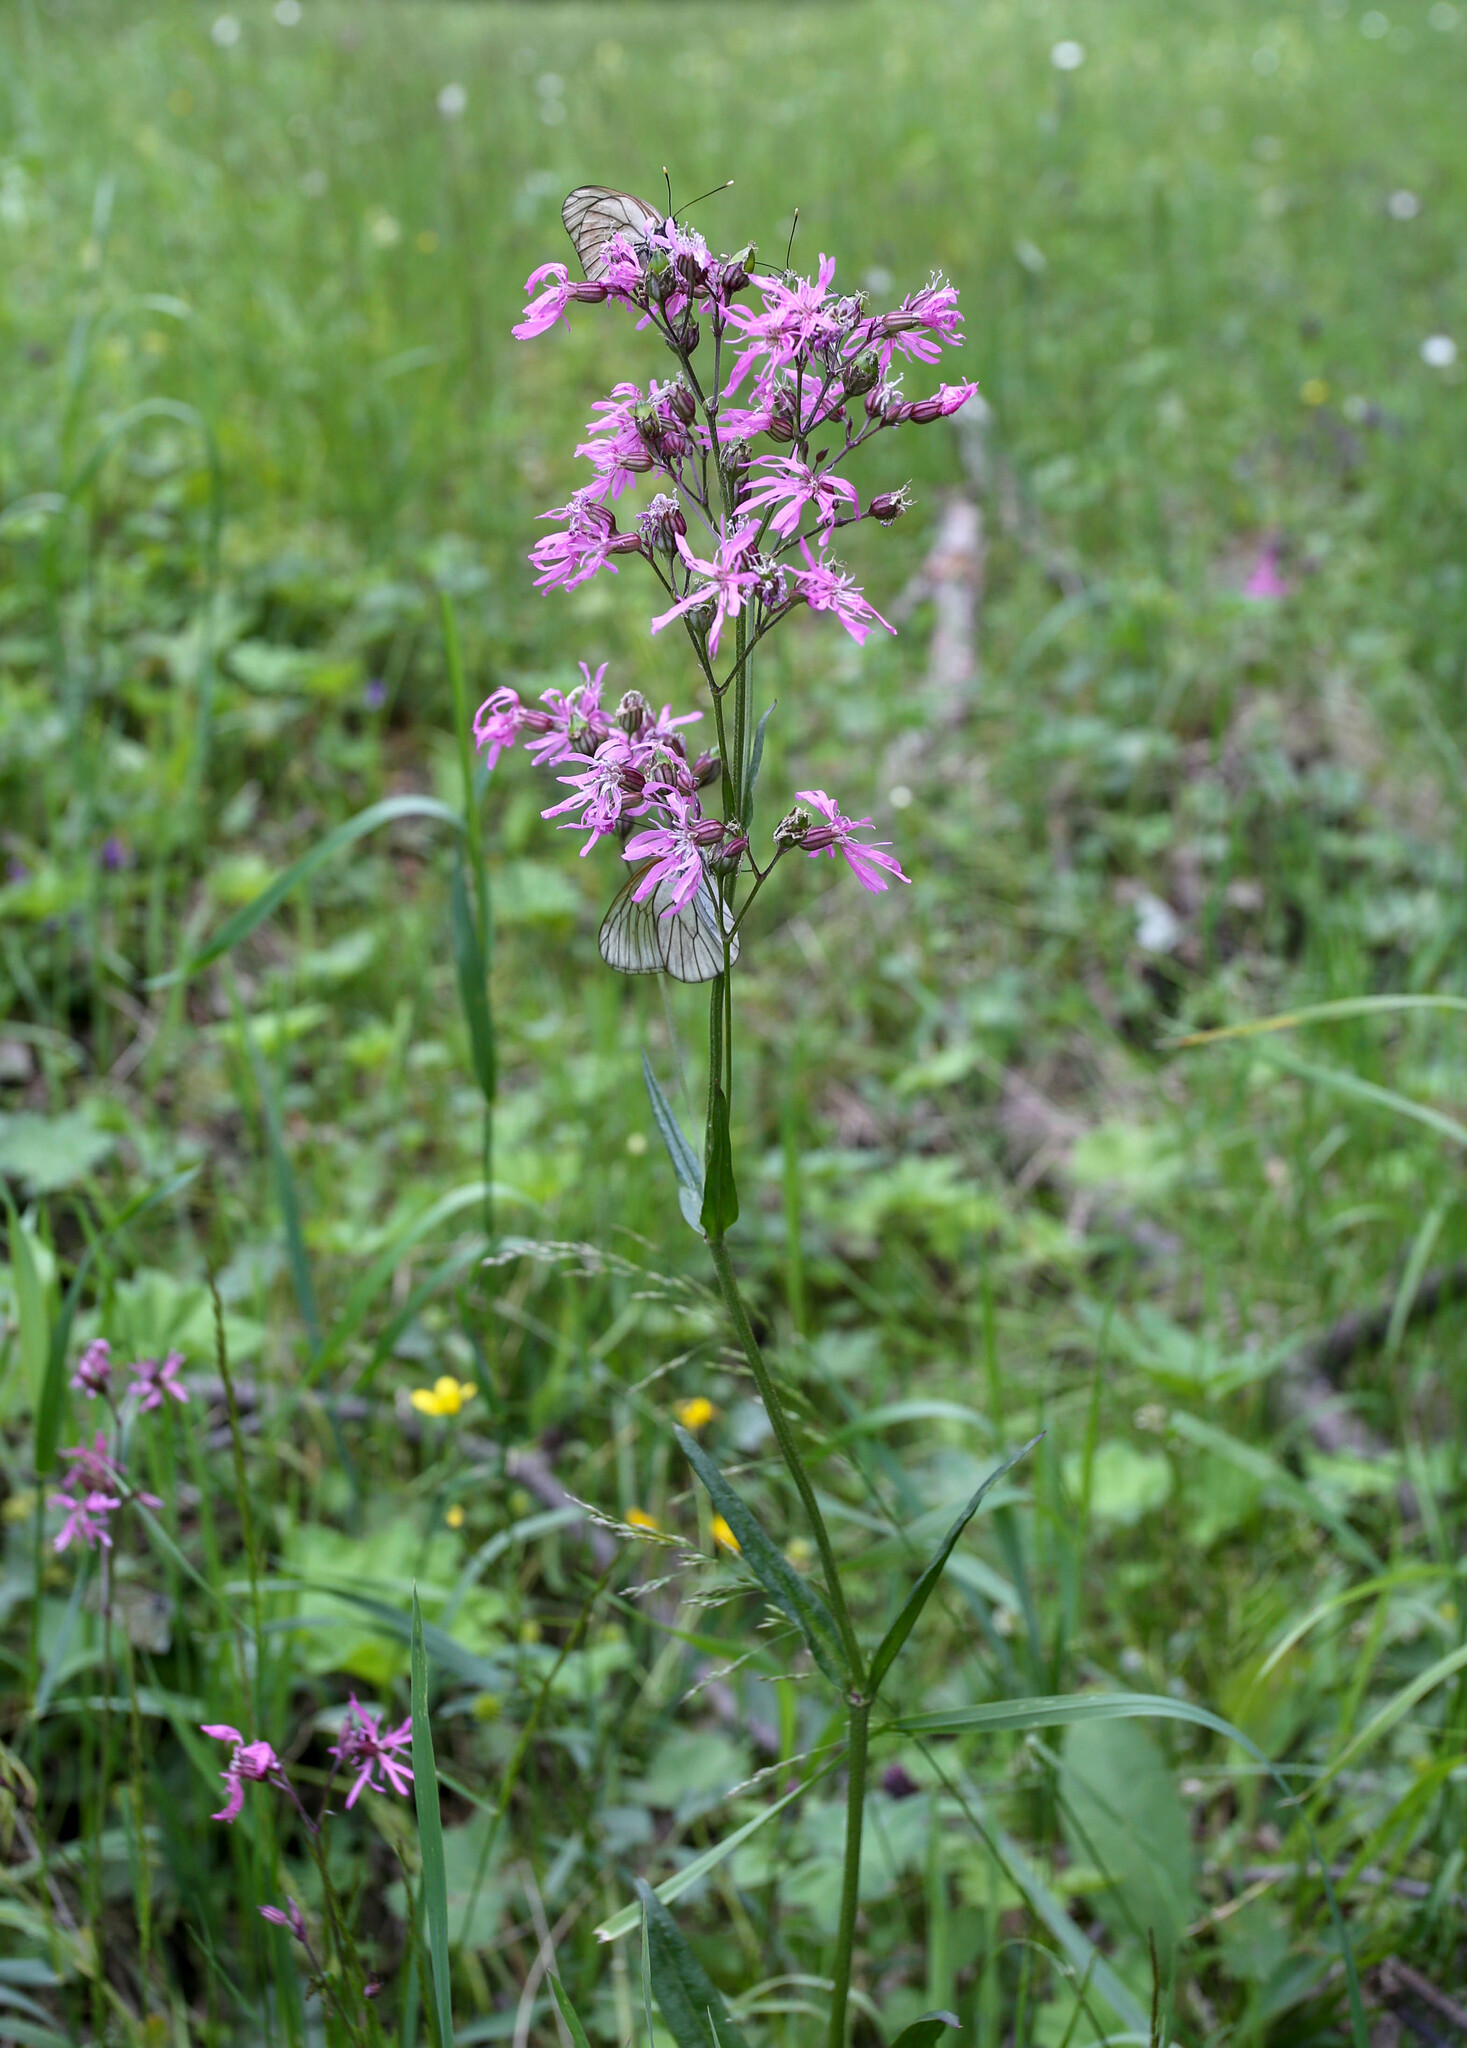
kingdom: Plantae
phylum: Tracheophyta
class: Magnoliopsida
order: Caryophyllales
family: Caryophyllaceae
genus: Silene
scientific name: Silene flos-cuculi
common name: Ragged-robin
